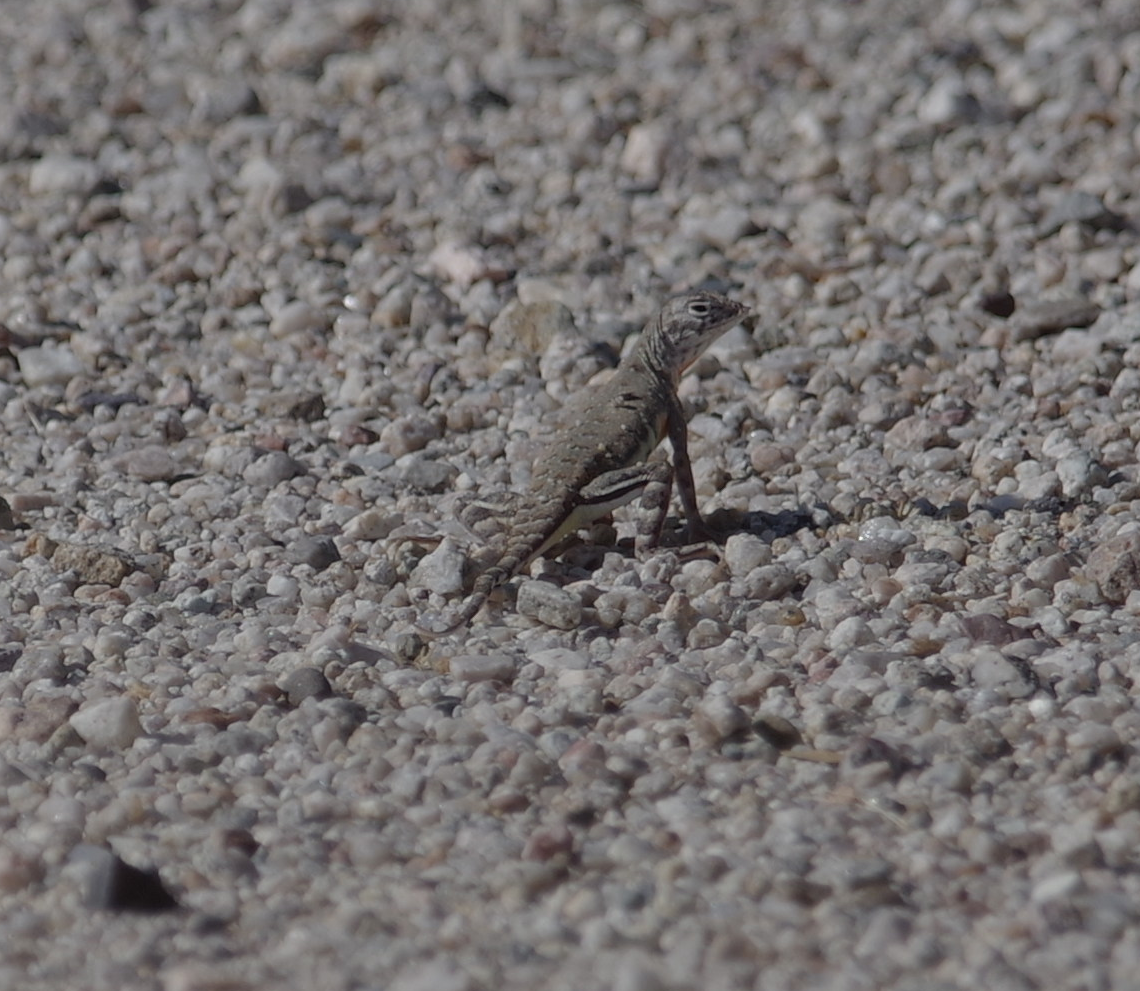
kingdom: Animalia
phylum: Chordata
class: Squamata
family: Phrynosomatidae
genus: Callisaurus
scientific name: Callisaurus draconoides
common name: Zebra-tailed lizard
